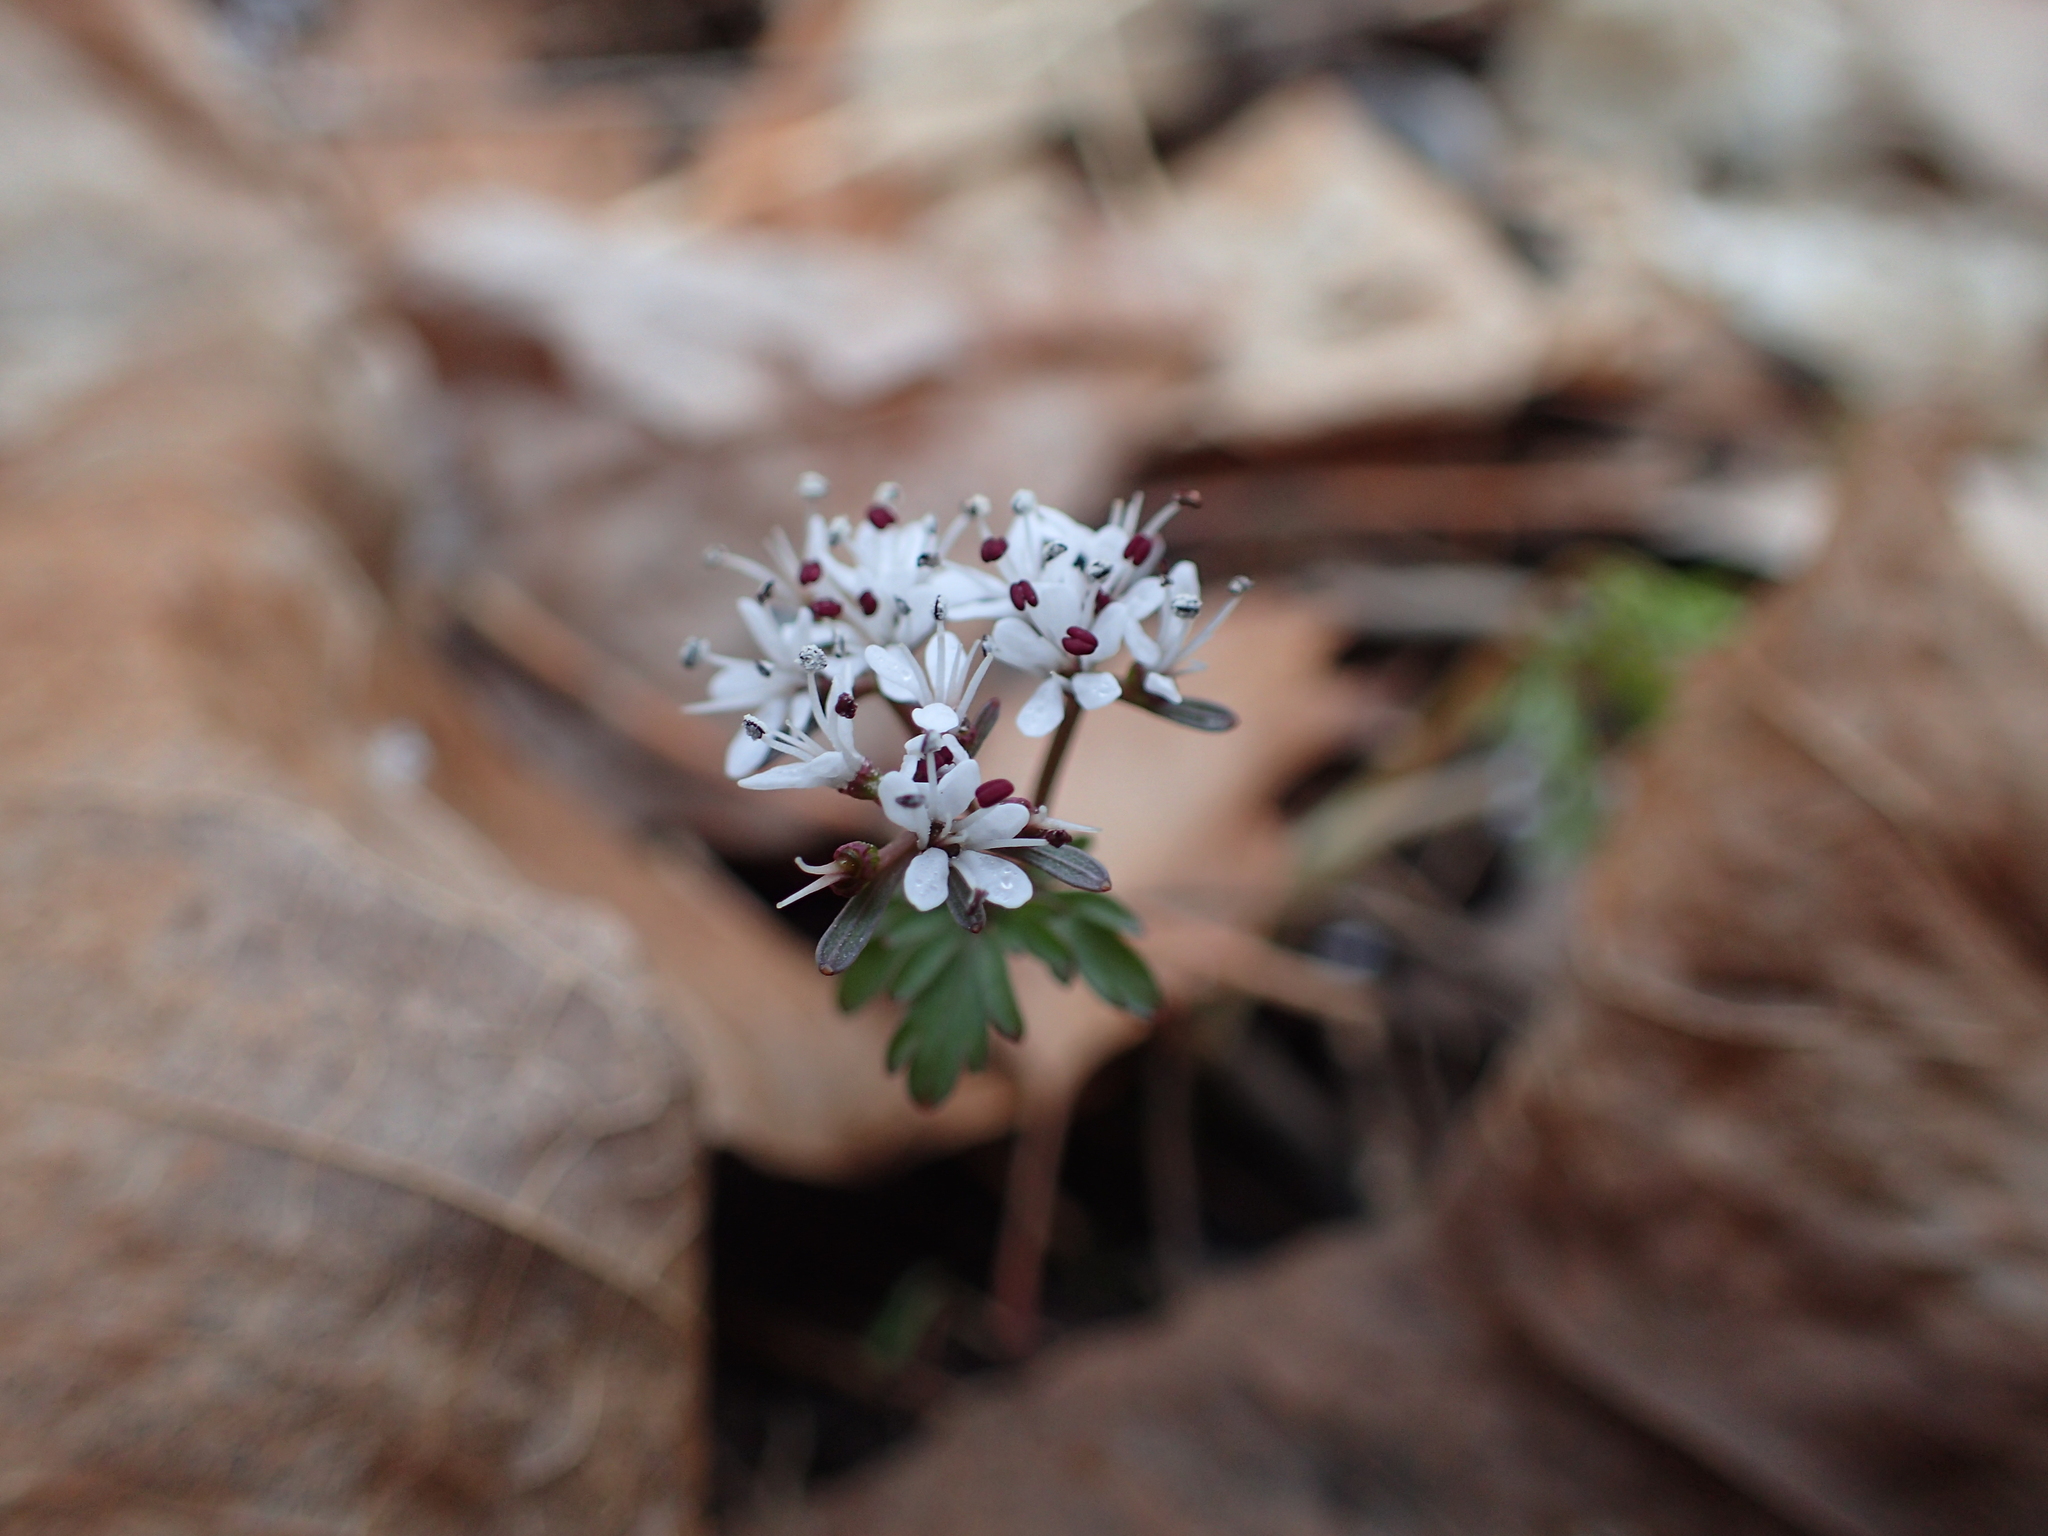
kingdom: Plantae
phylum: Tracheophyta
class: Magnoliopsida
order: Apiales
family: Apiaceae
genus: Erigenia
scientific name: Erigenia bulbosa
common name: Pepper-and-salt
